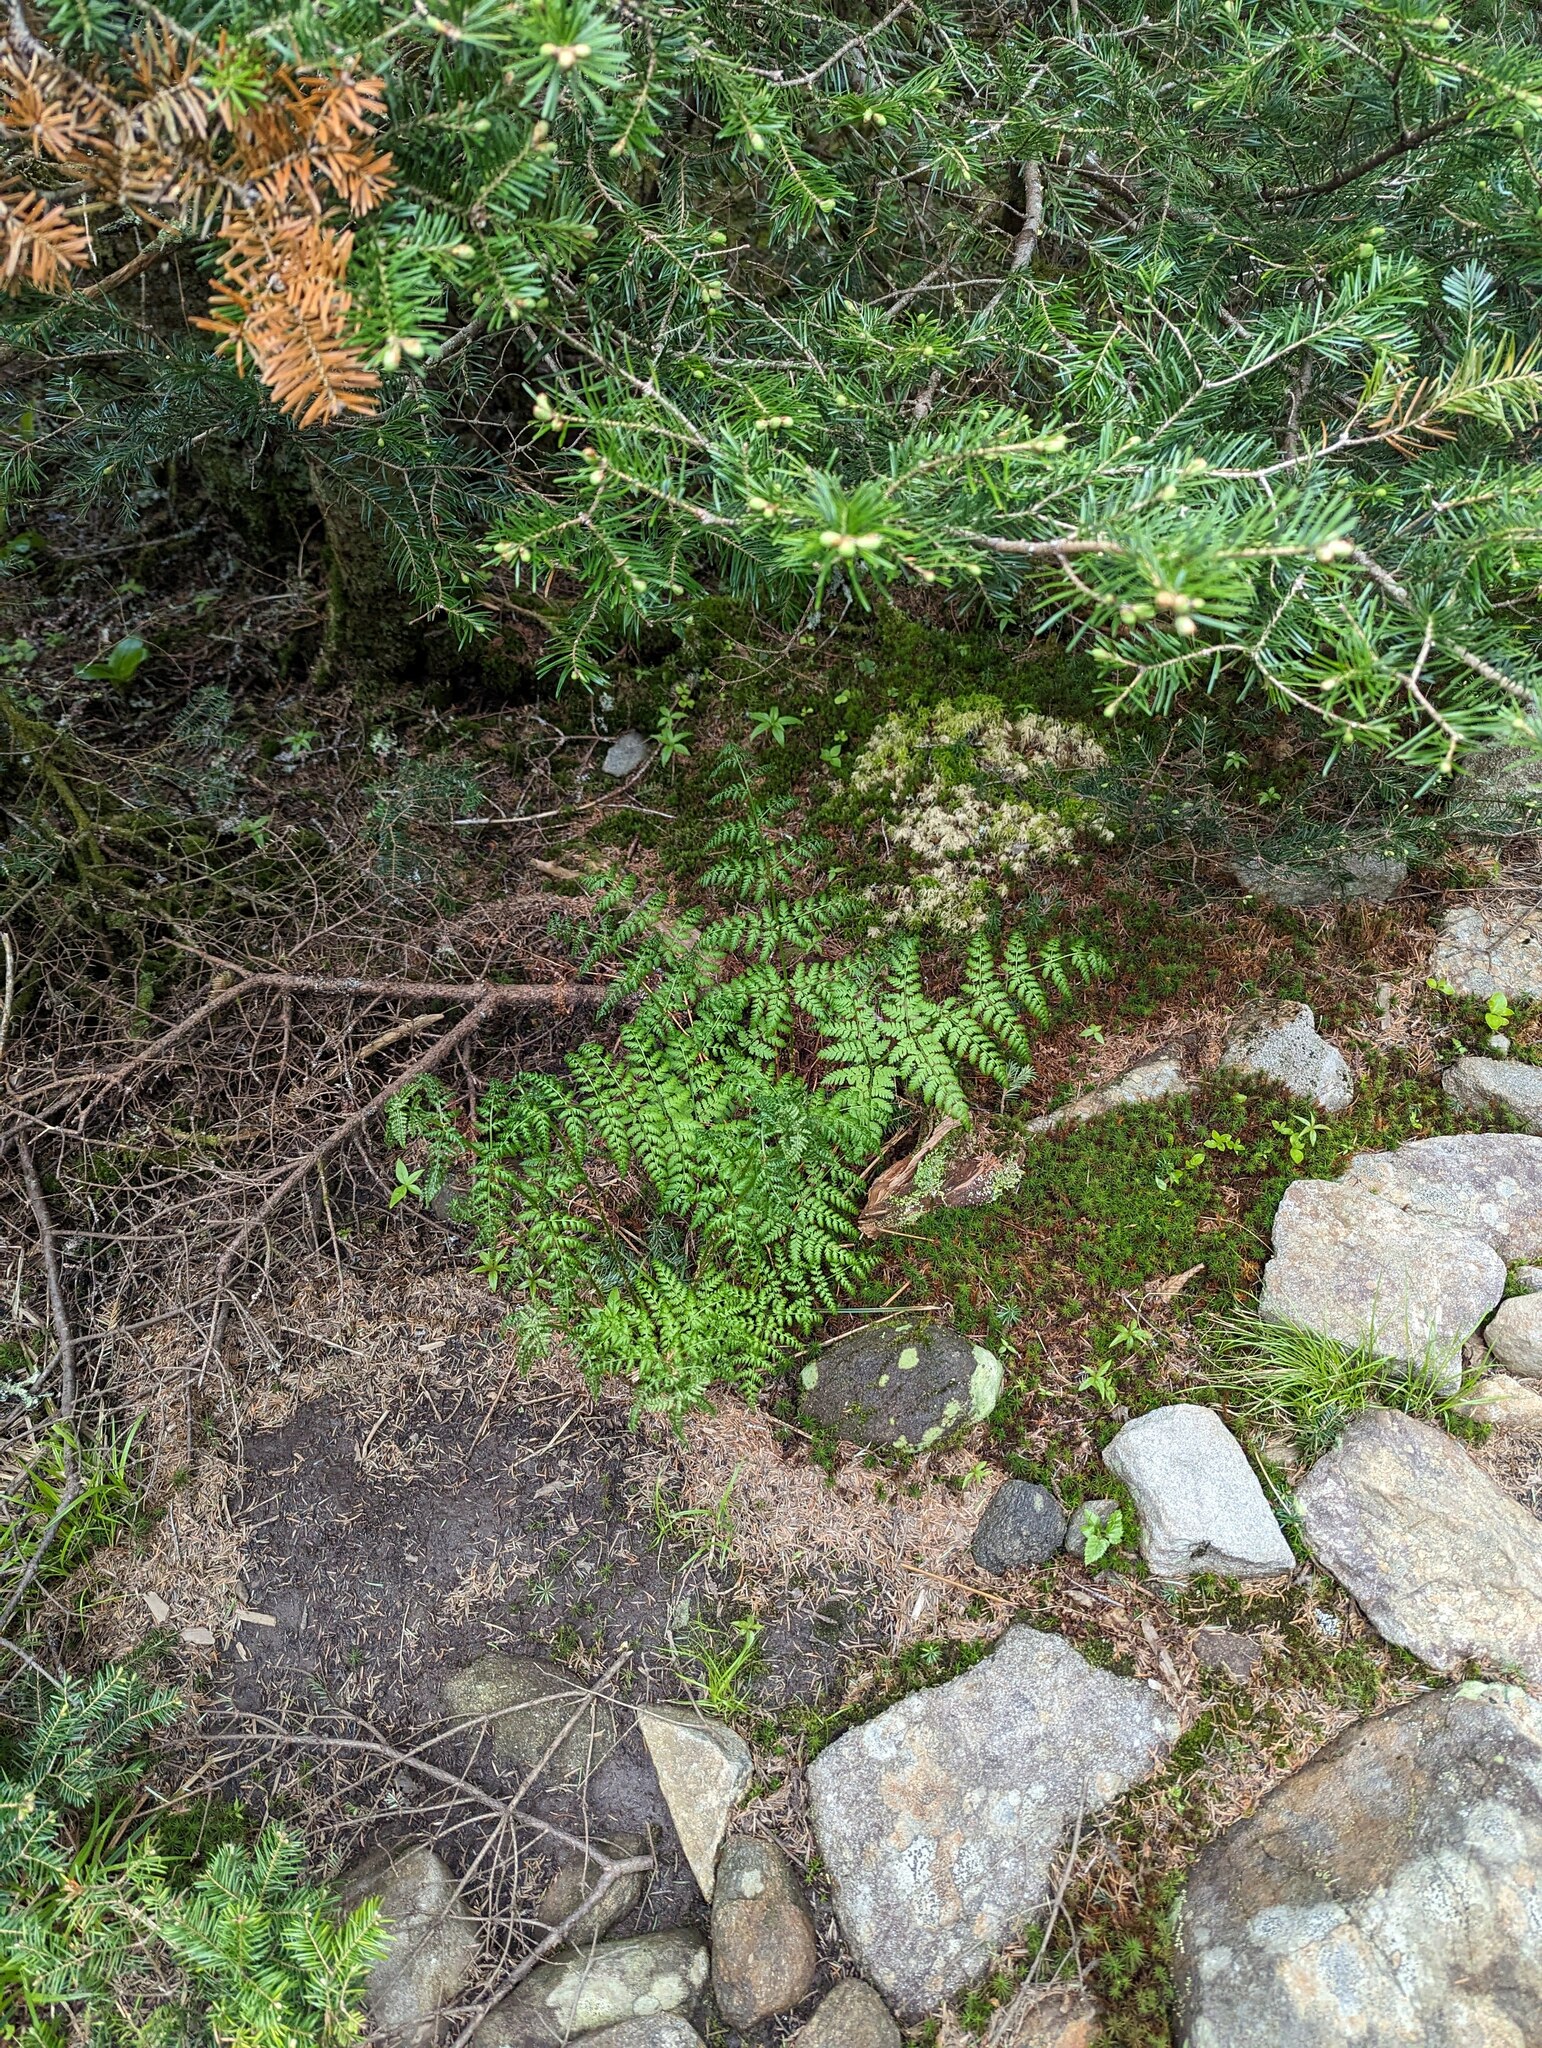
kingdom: Plantae
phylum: Tracheophyta
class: Pinopsida
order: Pinales
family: Pinaceae
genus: Abies
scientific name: Abies balsamea
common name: Balsam fir
